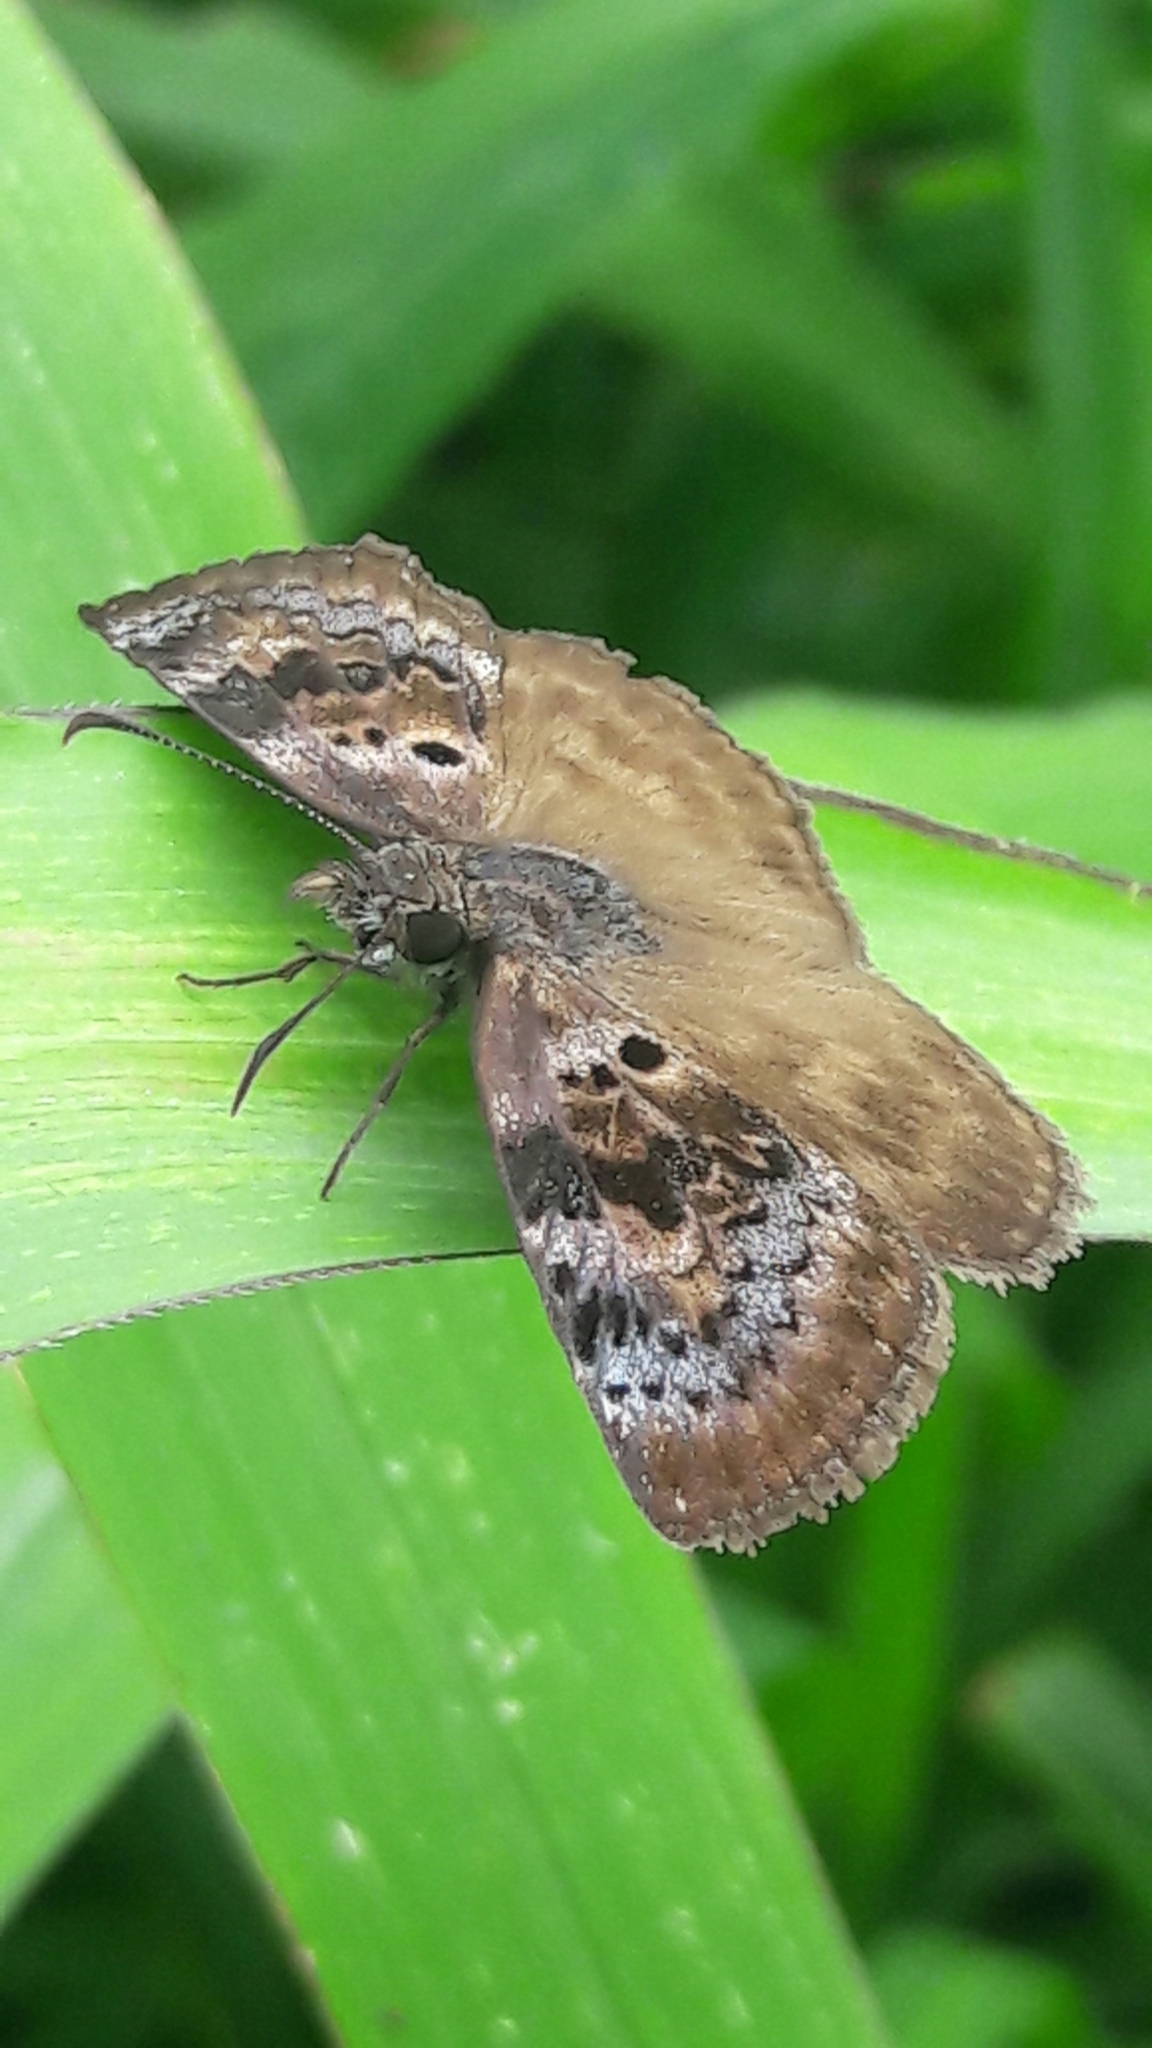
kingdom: Animalia
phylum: Arthropoda
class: Insecta
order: Lepidoptera
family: Hesperiidae
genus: Chiothion
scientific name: Chiothion
